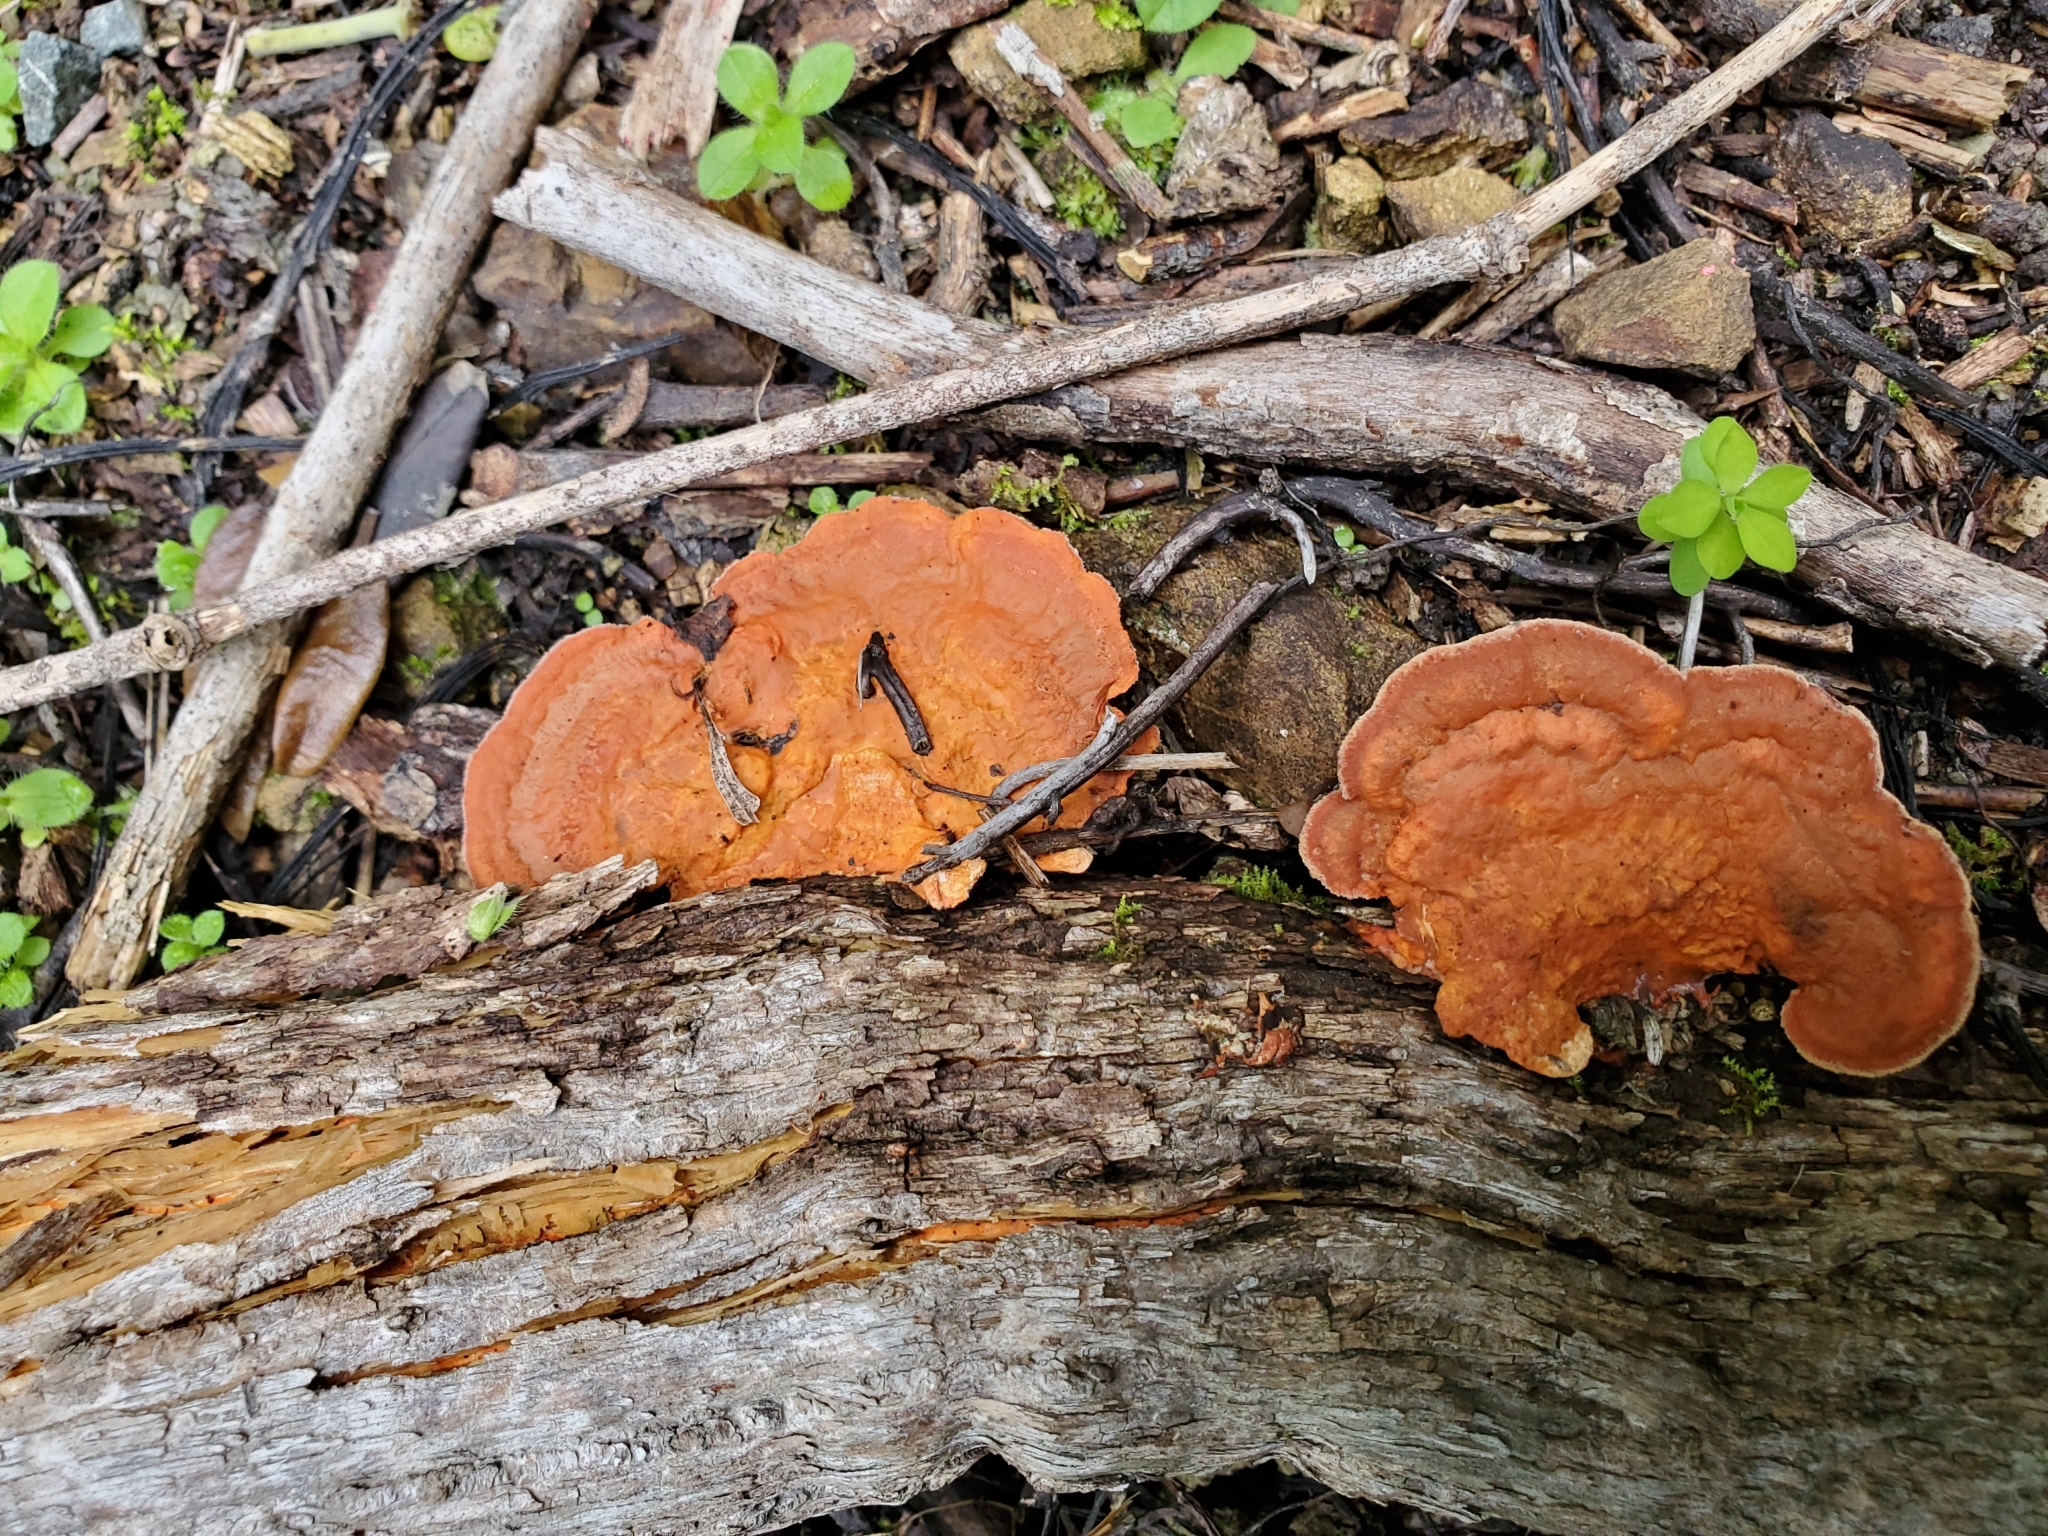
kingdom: Fungi
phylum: Basidiomycota
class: Agaricomycetes
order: Polyporales
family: Polyporaceae
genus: Trametes
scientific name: Trametes coccinea
